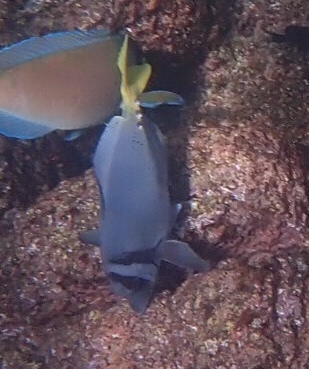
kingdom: Animalia
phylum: Chordata
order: Perciformes
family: Acanthuridae
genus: Prionurus
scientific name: Prionurus laticlavius
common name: Razor surgeonfish
